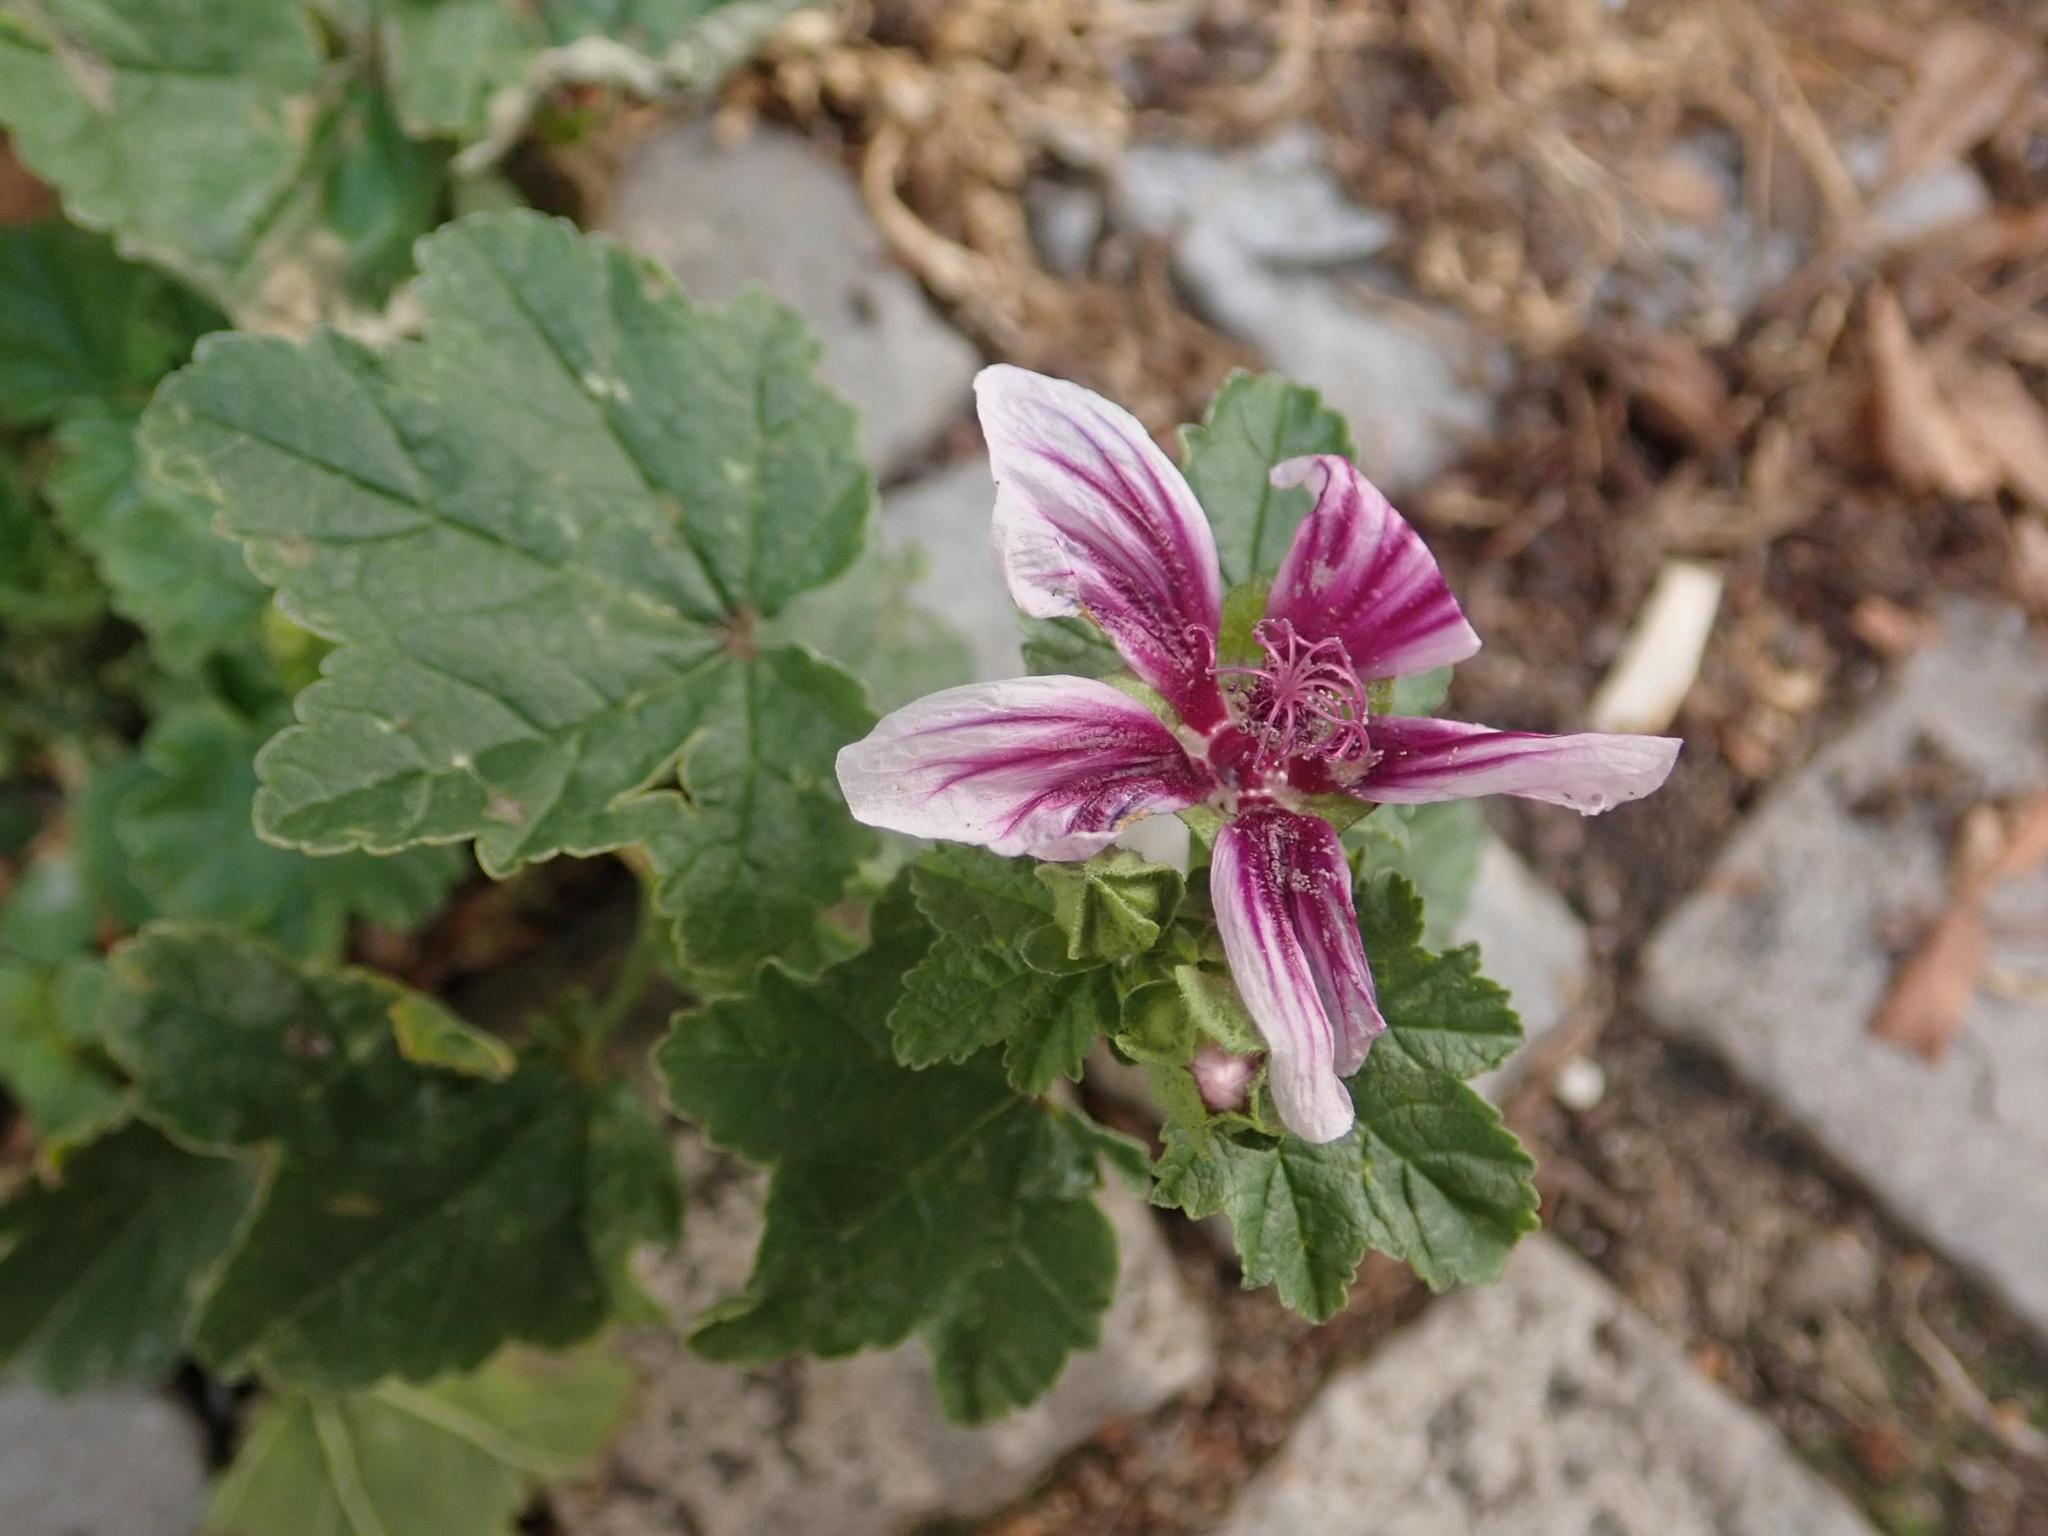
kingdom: Plantae
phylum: Tracheophyta
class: Magnoliopsida
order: Malvales
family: Malvaceae
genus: Malva
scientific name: Malva sylvestris
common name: Common mallow
